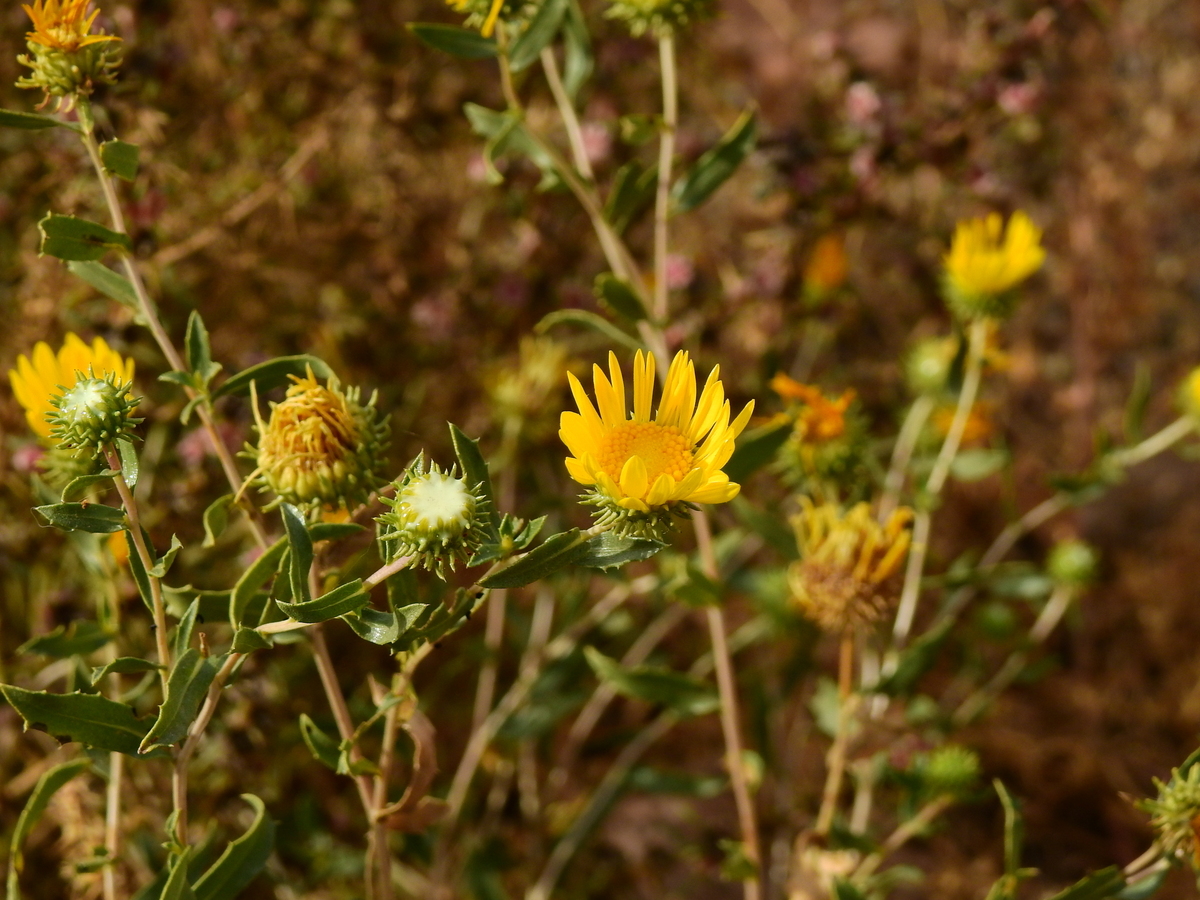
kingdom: Plantae
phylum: Tracheophyta
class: Magnoliopsida
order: Asterales
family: Asteraceae
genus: Grindelia
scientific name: Grindelia pulchella
